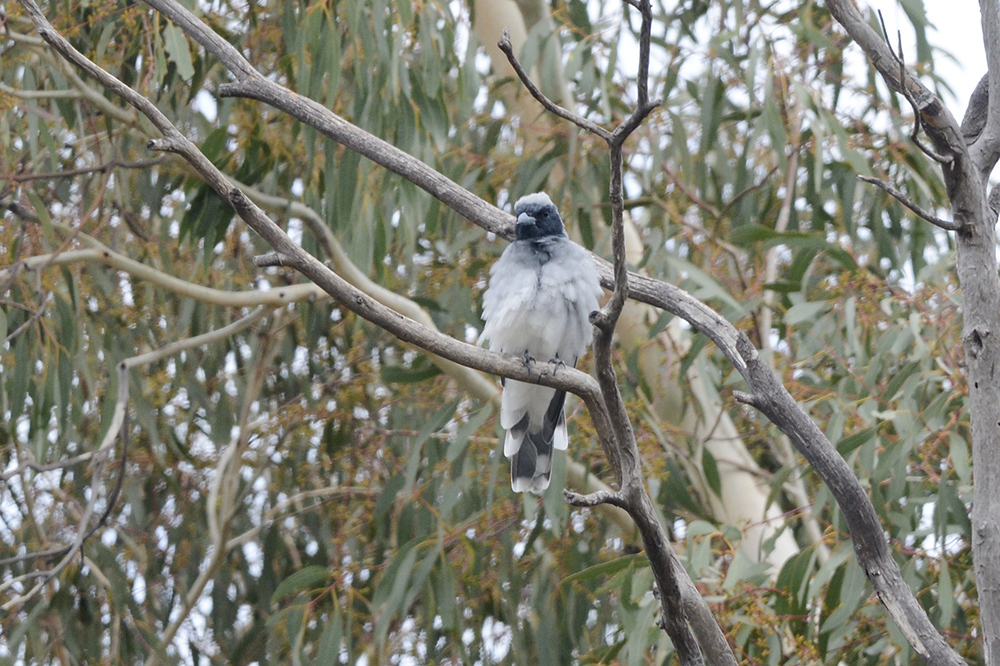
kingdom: Animalia
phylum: Chordata
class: Aves
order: Passeriformes
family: Campephagidae
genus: Coracina
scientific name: Coracina novaehollandiae
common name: Black-faced cuckooshrike
